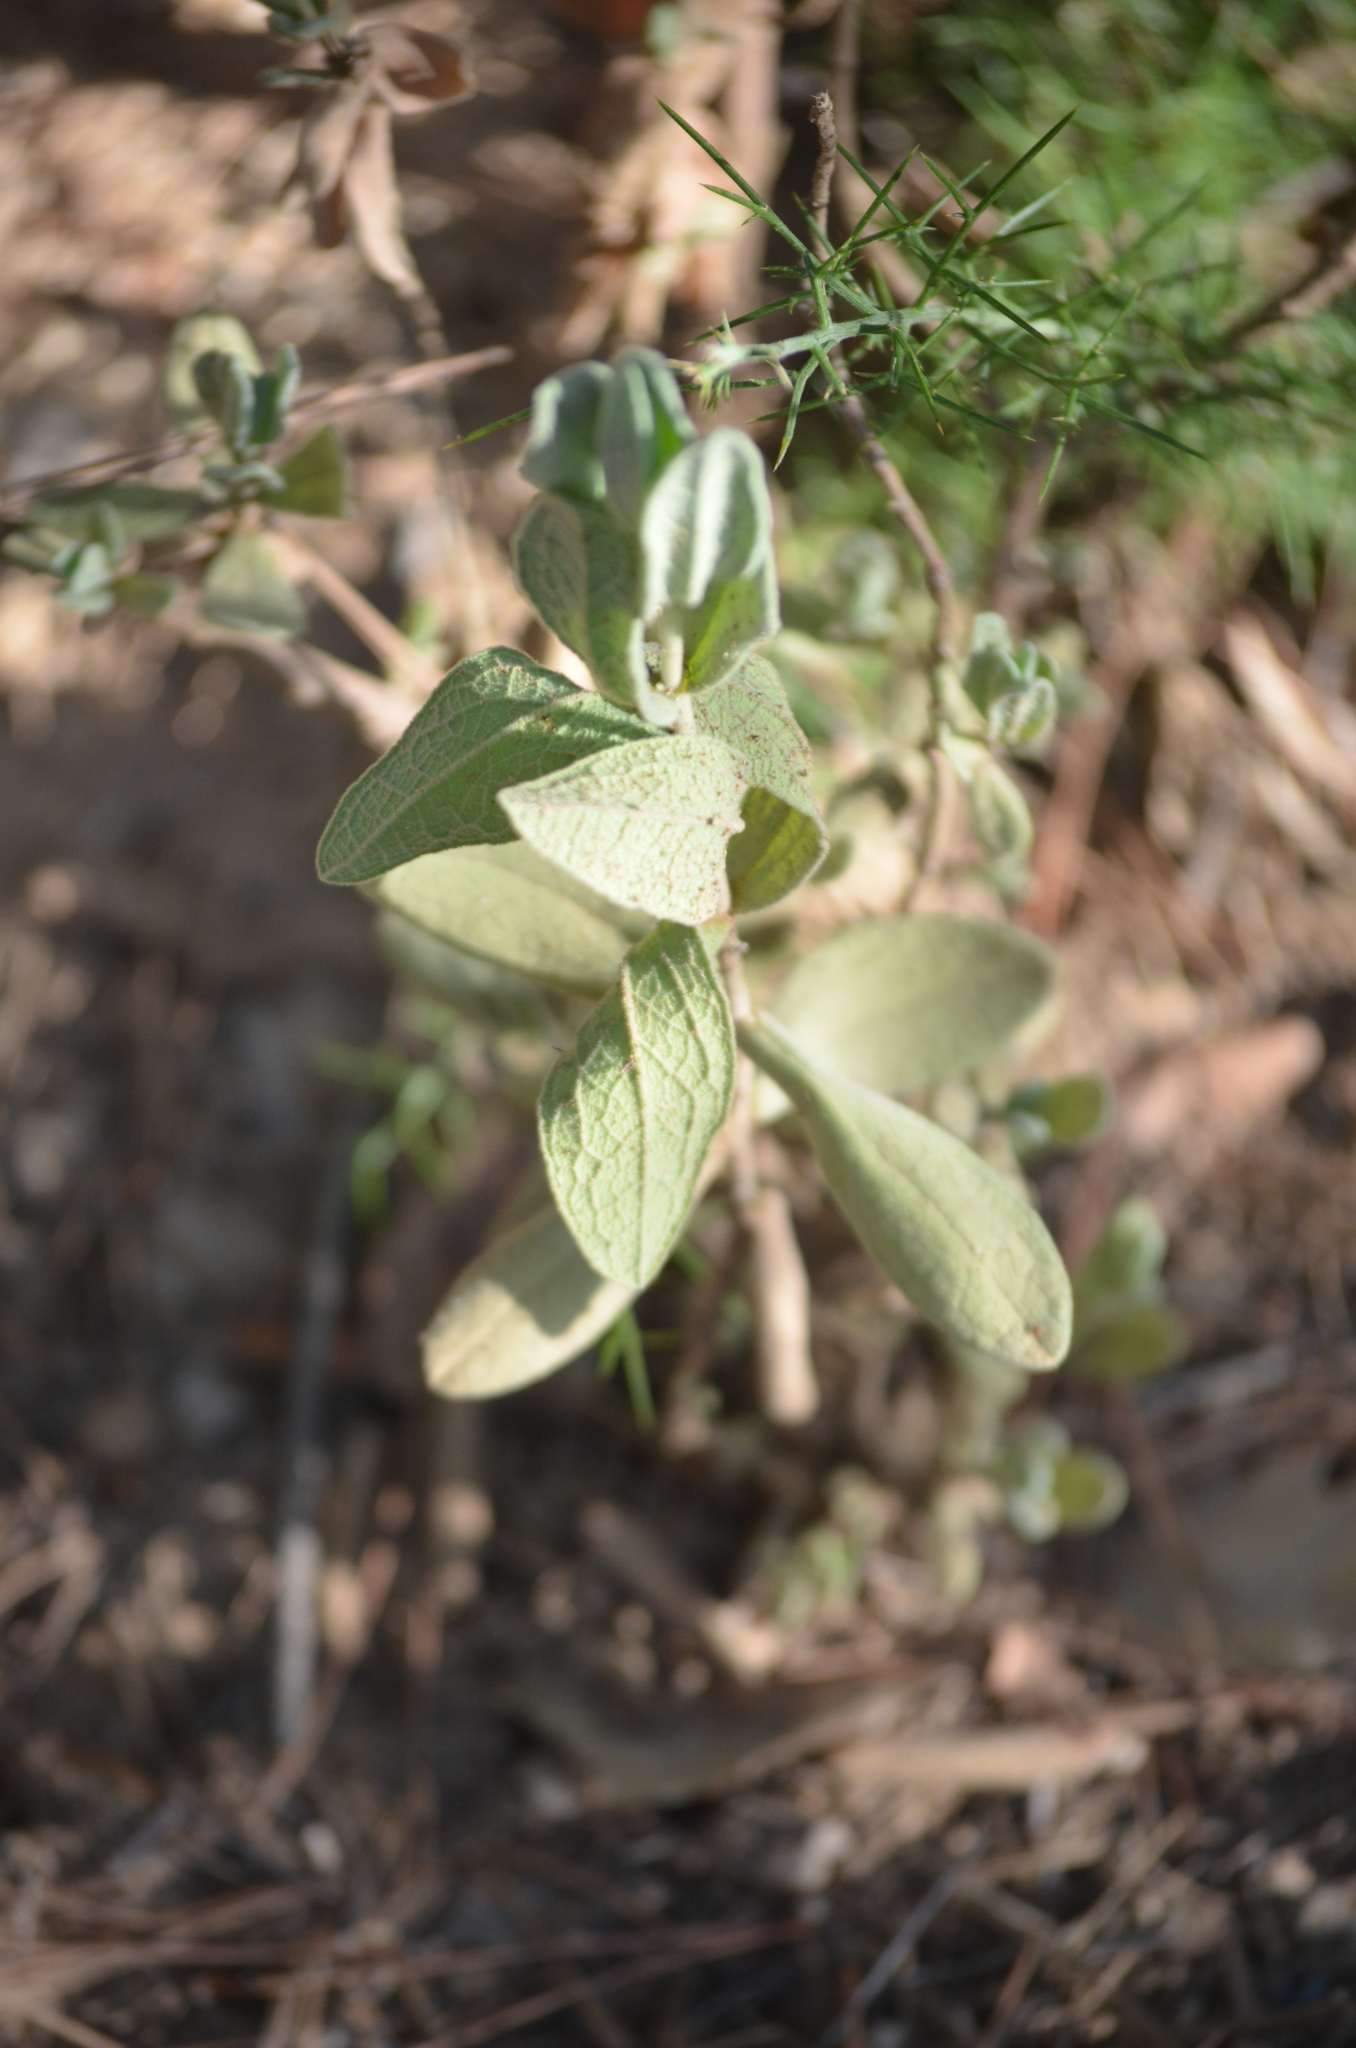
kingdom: Plantae
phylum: Tracheophyta
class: Magnoliopsida
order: Malvales
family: Cistaceae
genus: Cistus
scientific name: Cistus albidus
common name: White-leaf rock-rose
